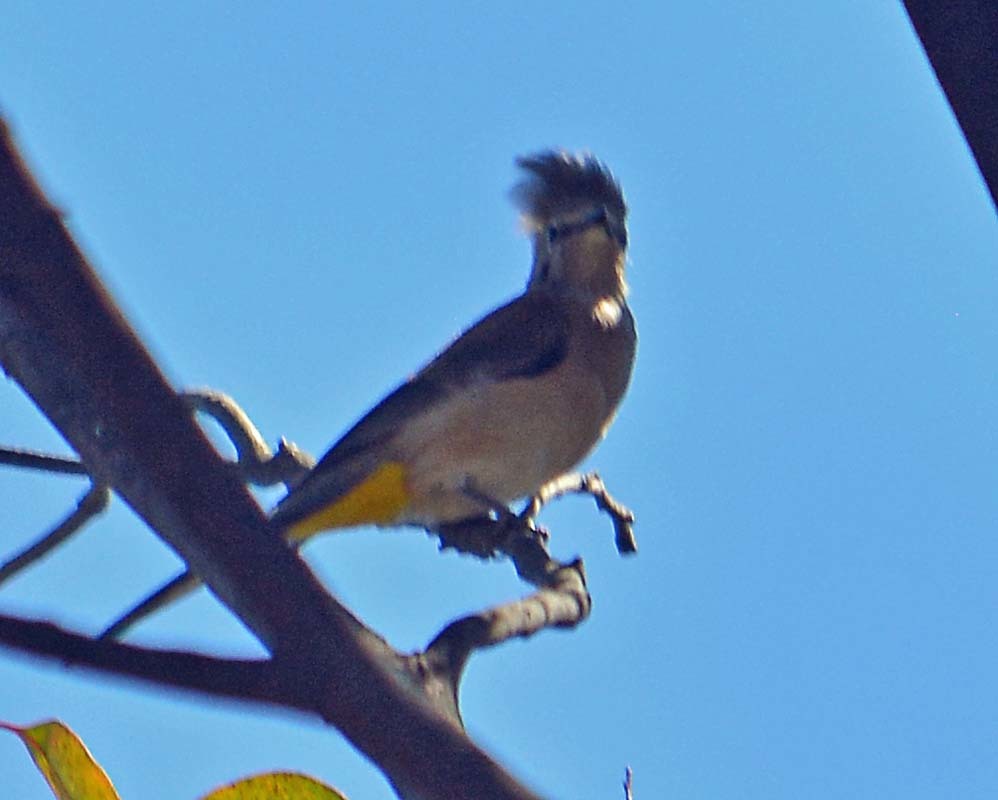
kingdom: Animalia
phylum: Chordata
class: Aves
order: Passeriformes
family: Ptilogonatidae
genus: Ptilogonys
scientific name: Ptilogonys cinereus
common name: Gray silky-flycatcher
